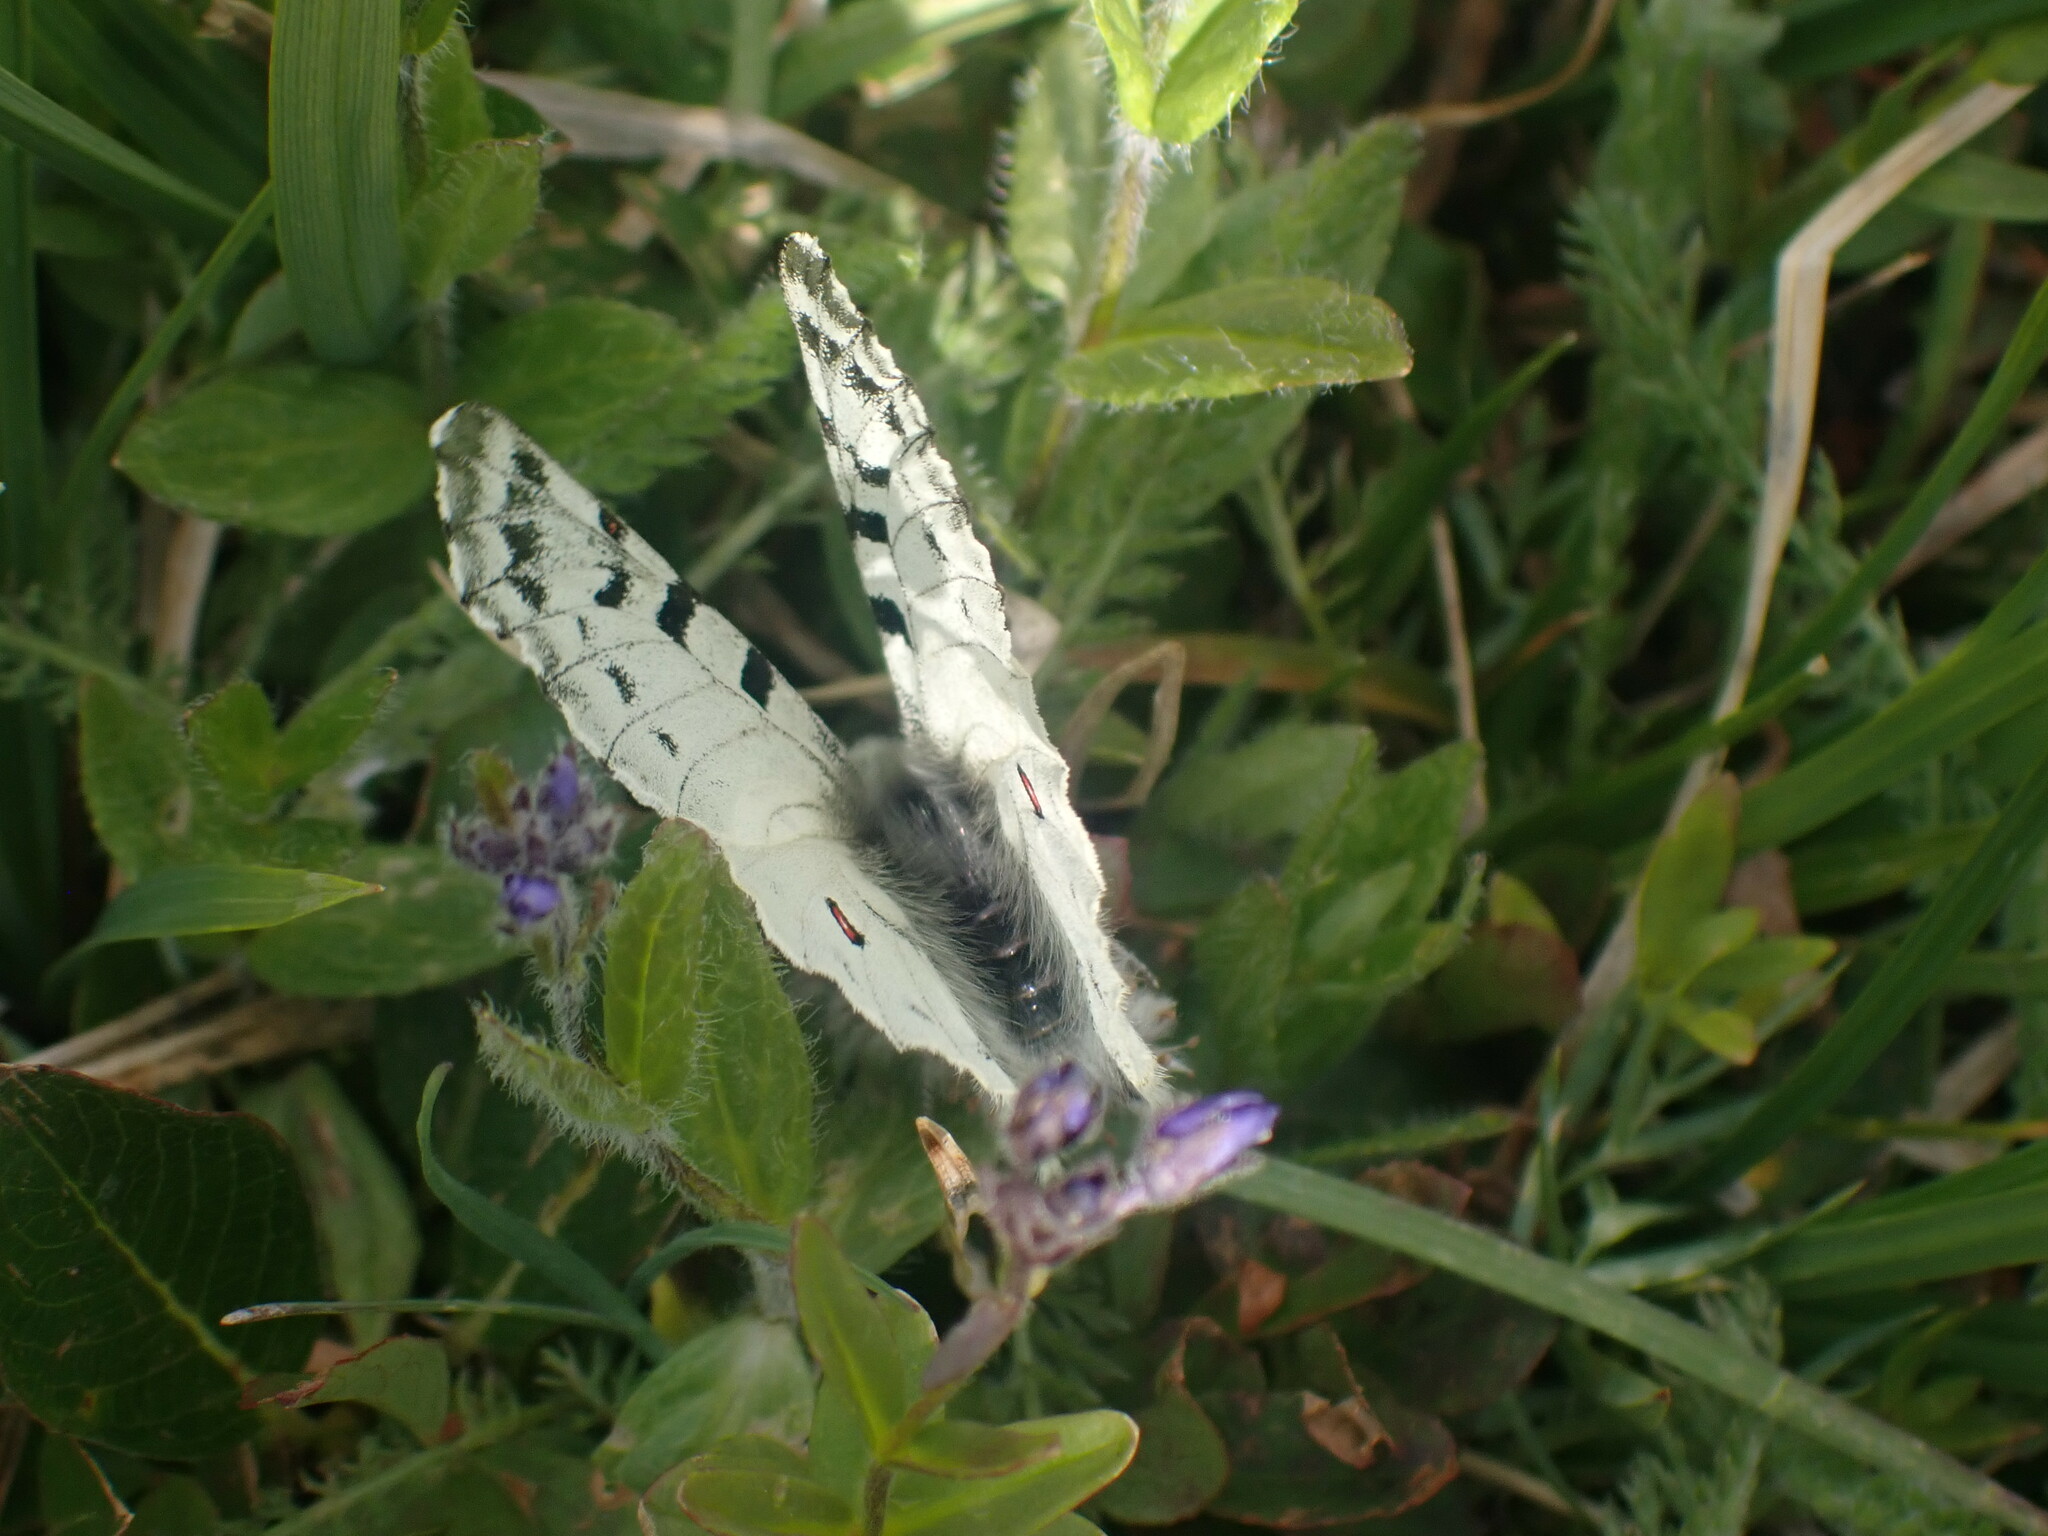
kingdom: Animalia
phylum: Arthropoda
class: Insecta
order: Lepidoptera
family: Papilionidae
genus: Parnassius
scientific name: Parnassius smintheus
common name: Mountain parnassian
